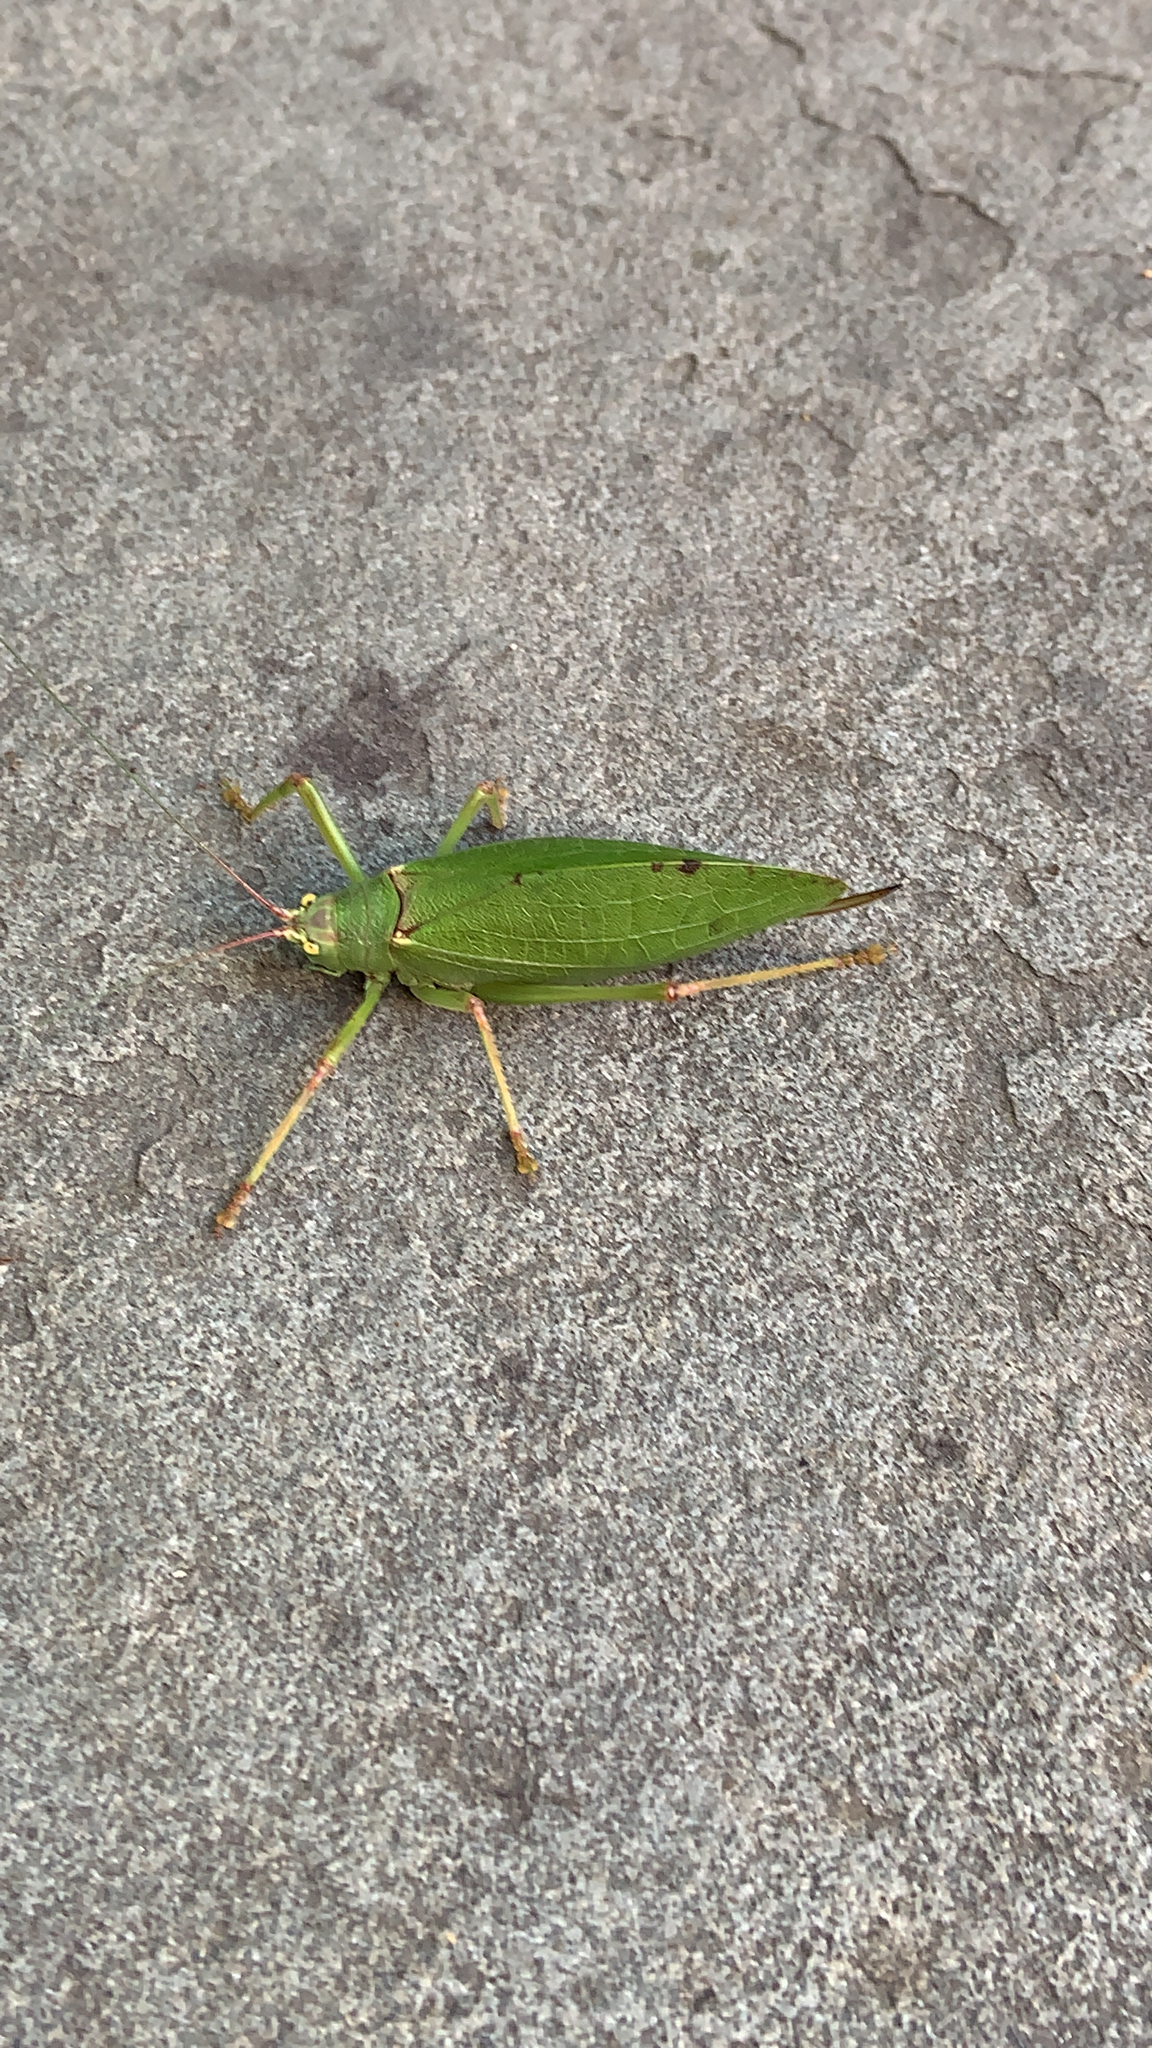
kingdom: Animalia
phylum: Arthropoda
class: Insecta
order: Orthoptera
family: Tettigoniidae
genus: Pterophylla
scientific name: Pterophylla camellifolia
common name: Common true katydid
